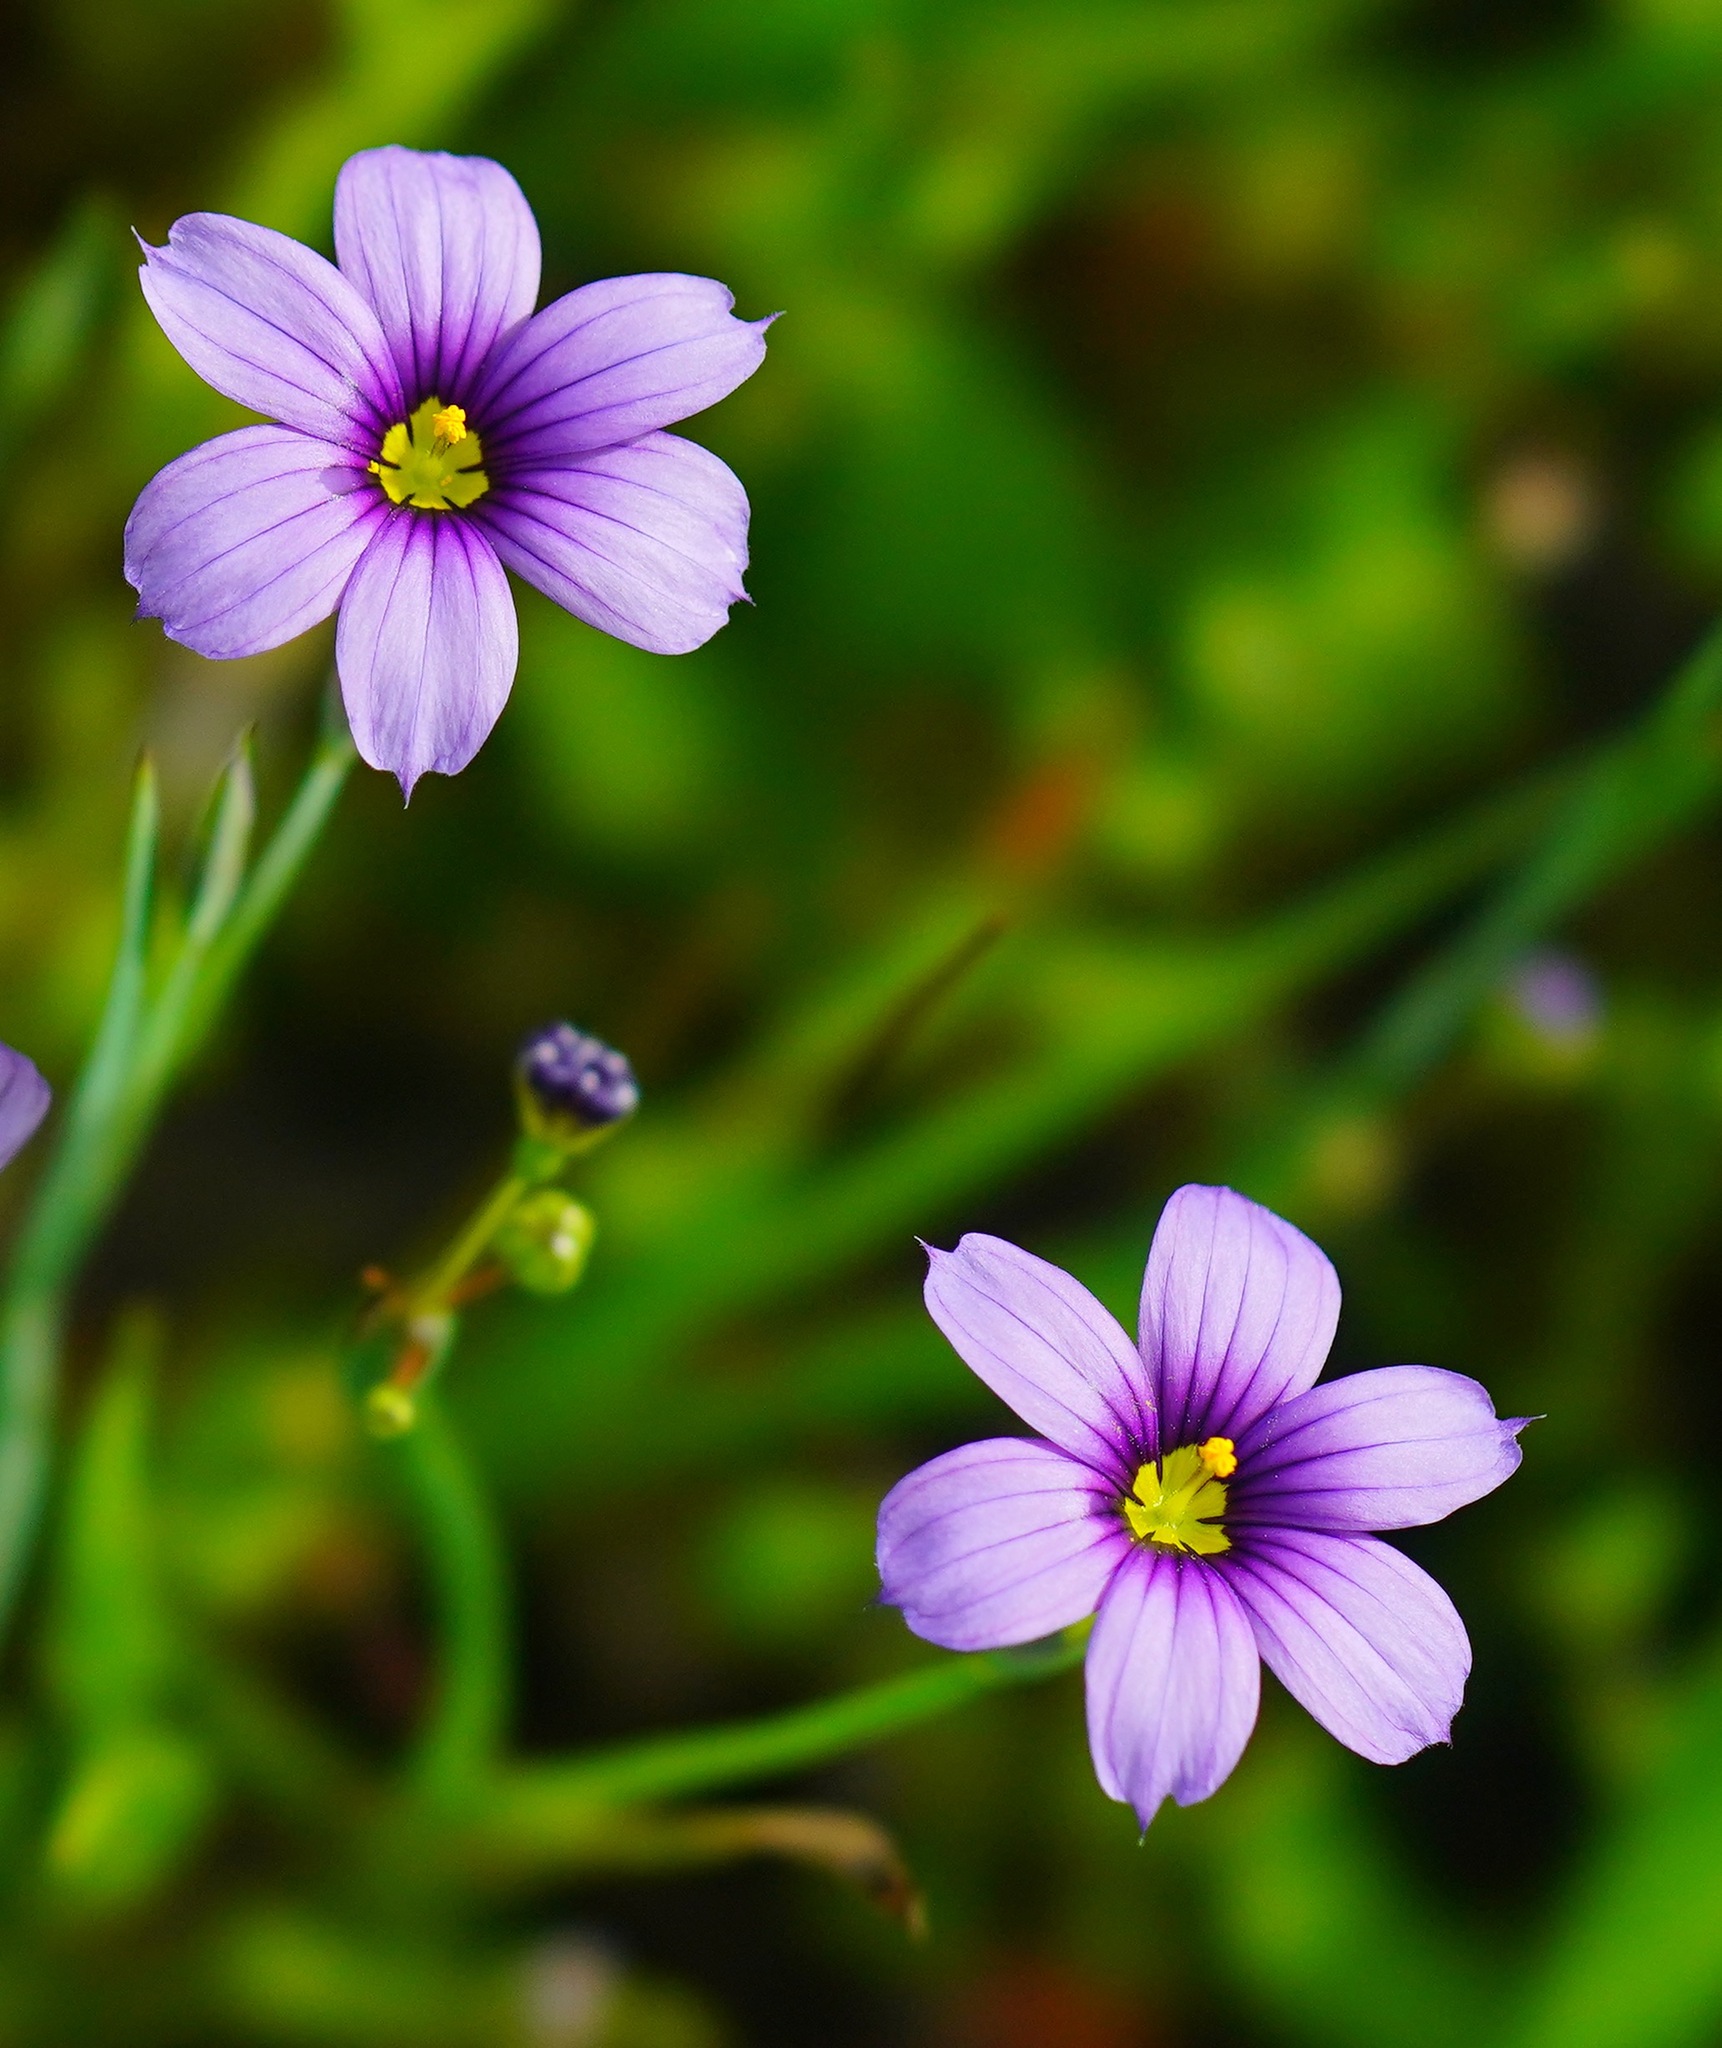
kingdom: Plantae
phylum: Tracheophyta
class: Liliopsida
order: Asparagales
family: Iridaceae
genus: Sisyrinchium
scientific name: Sisyrinchium bellum
